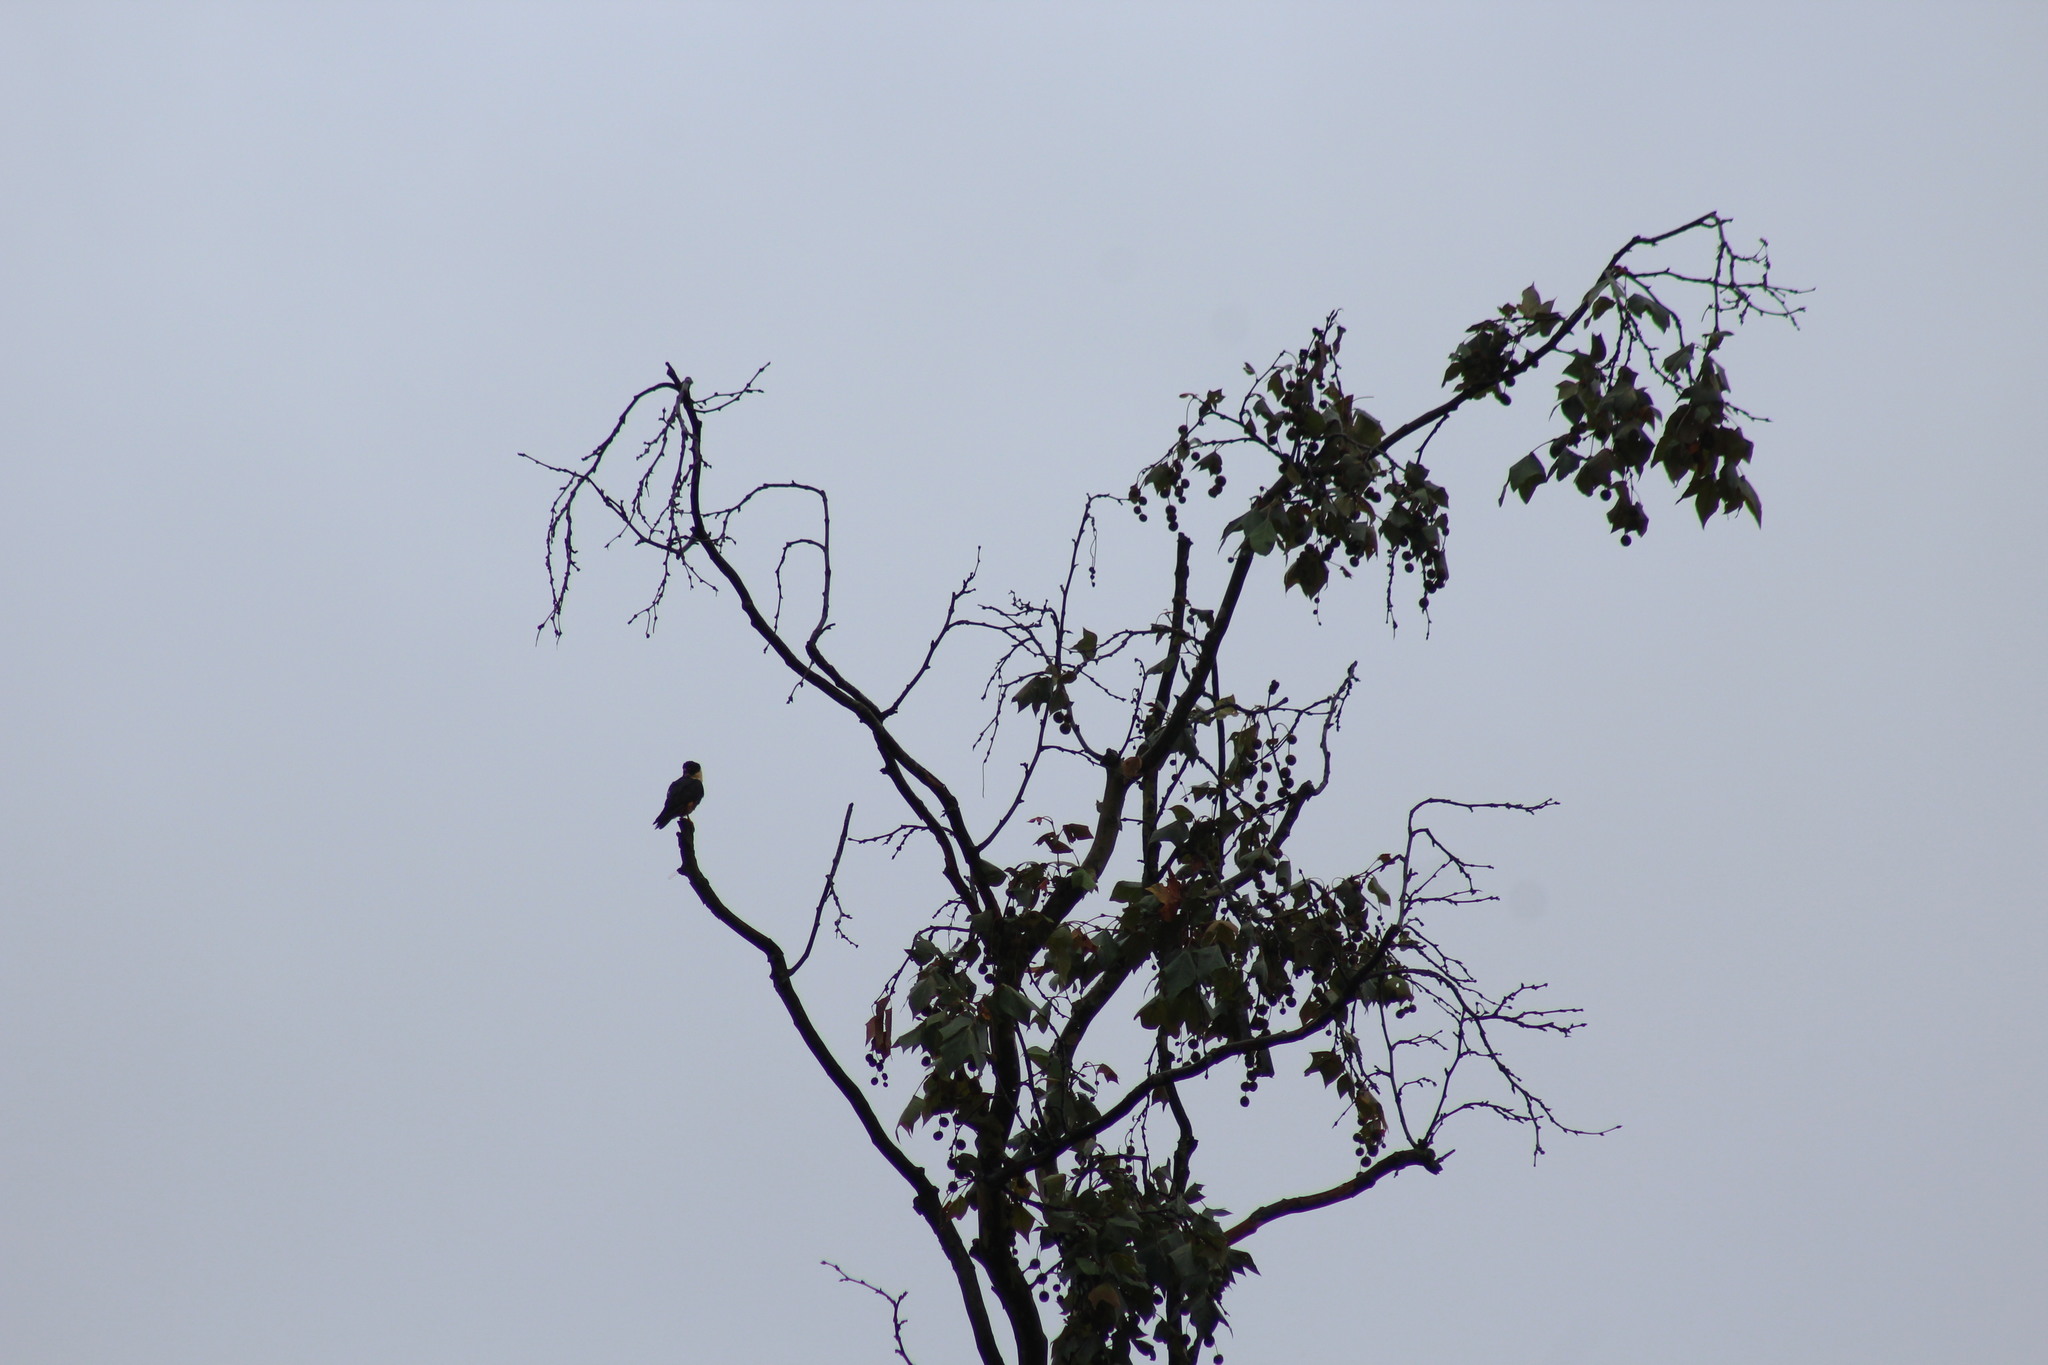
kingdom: Animalia
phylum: Chordata
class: Aves
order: Falconiformes
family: Falconidae
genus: Falco
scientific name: Falco rufigularis
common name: Bat falcon
